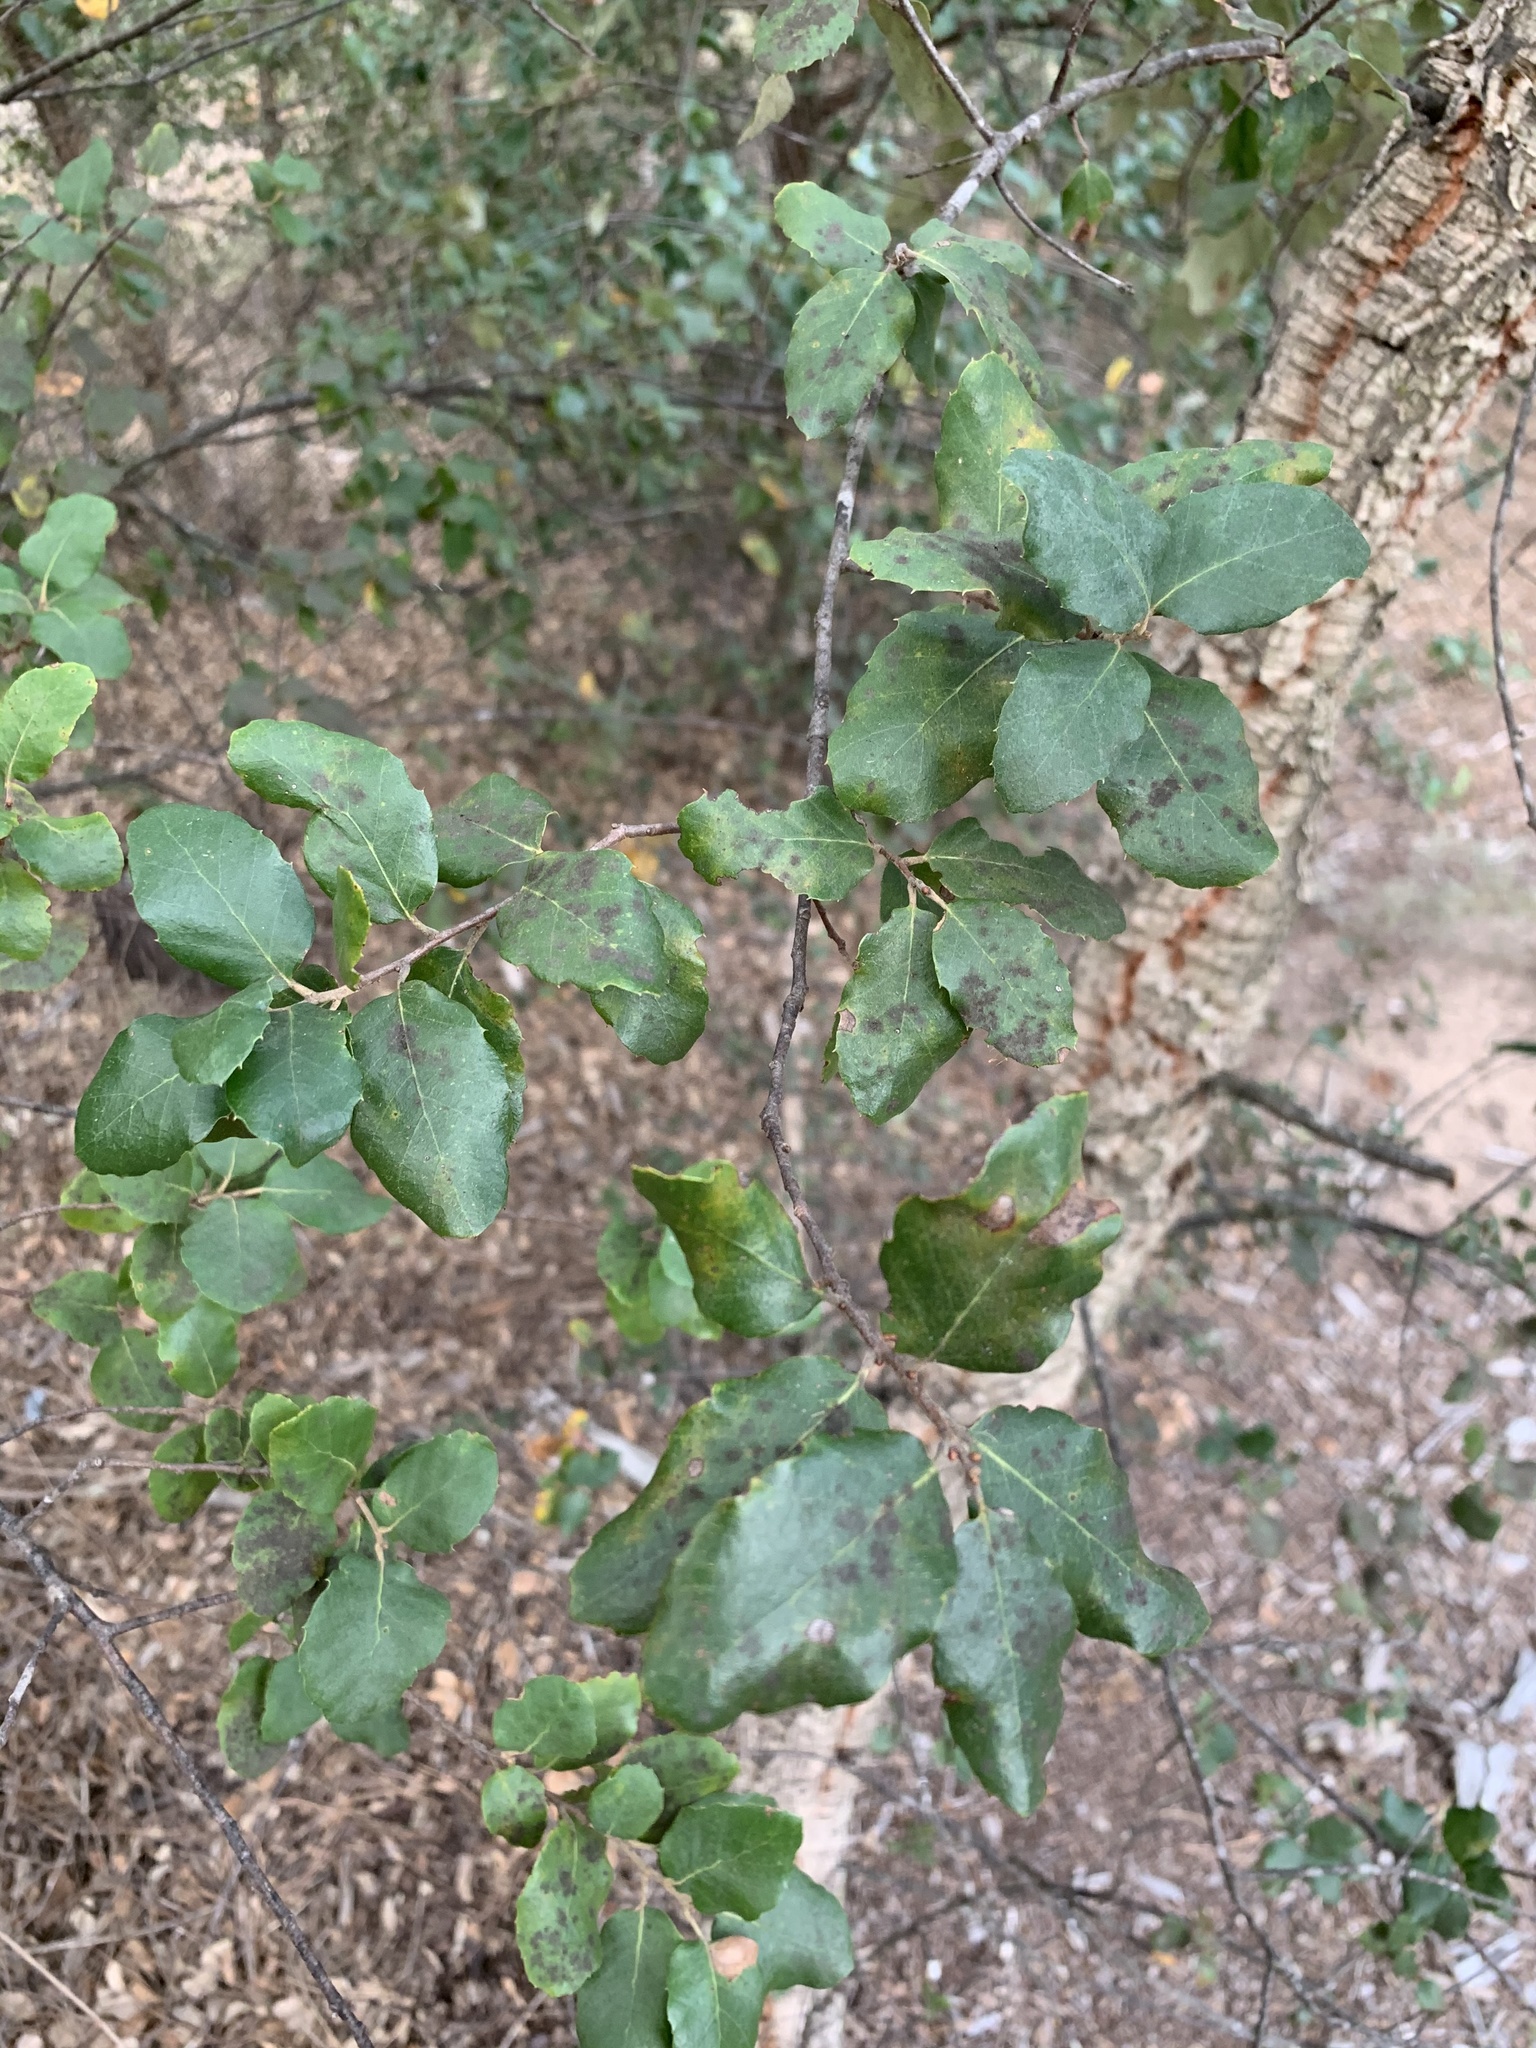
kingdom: Plantae
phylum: Tracheophyta
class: Magnoliopsida
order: Fagales
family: Fagaceae
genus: Quercus
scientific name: Quercus suber
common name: Cork oak
